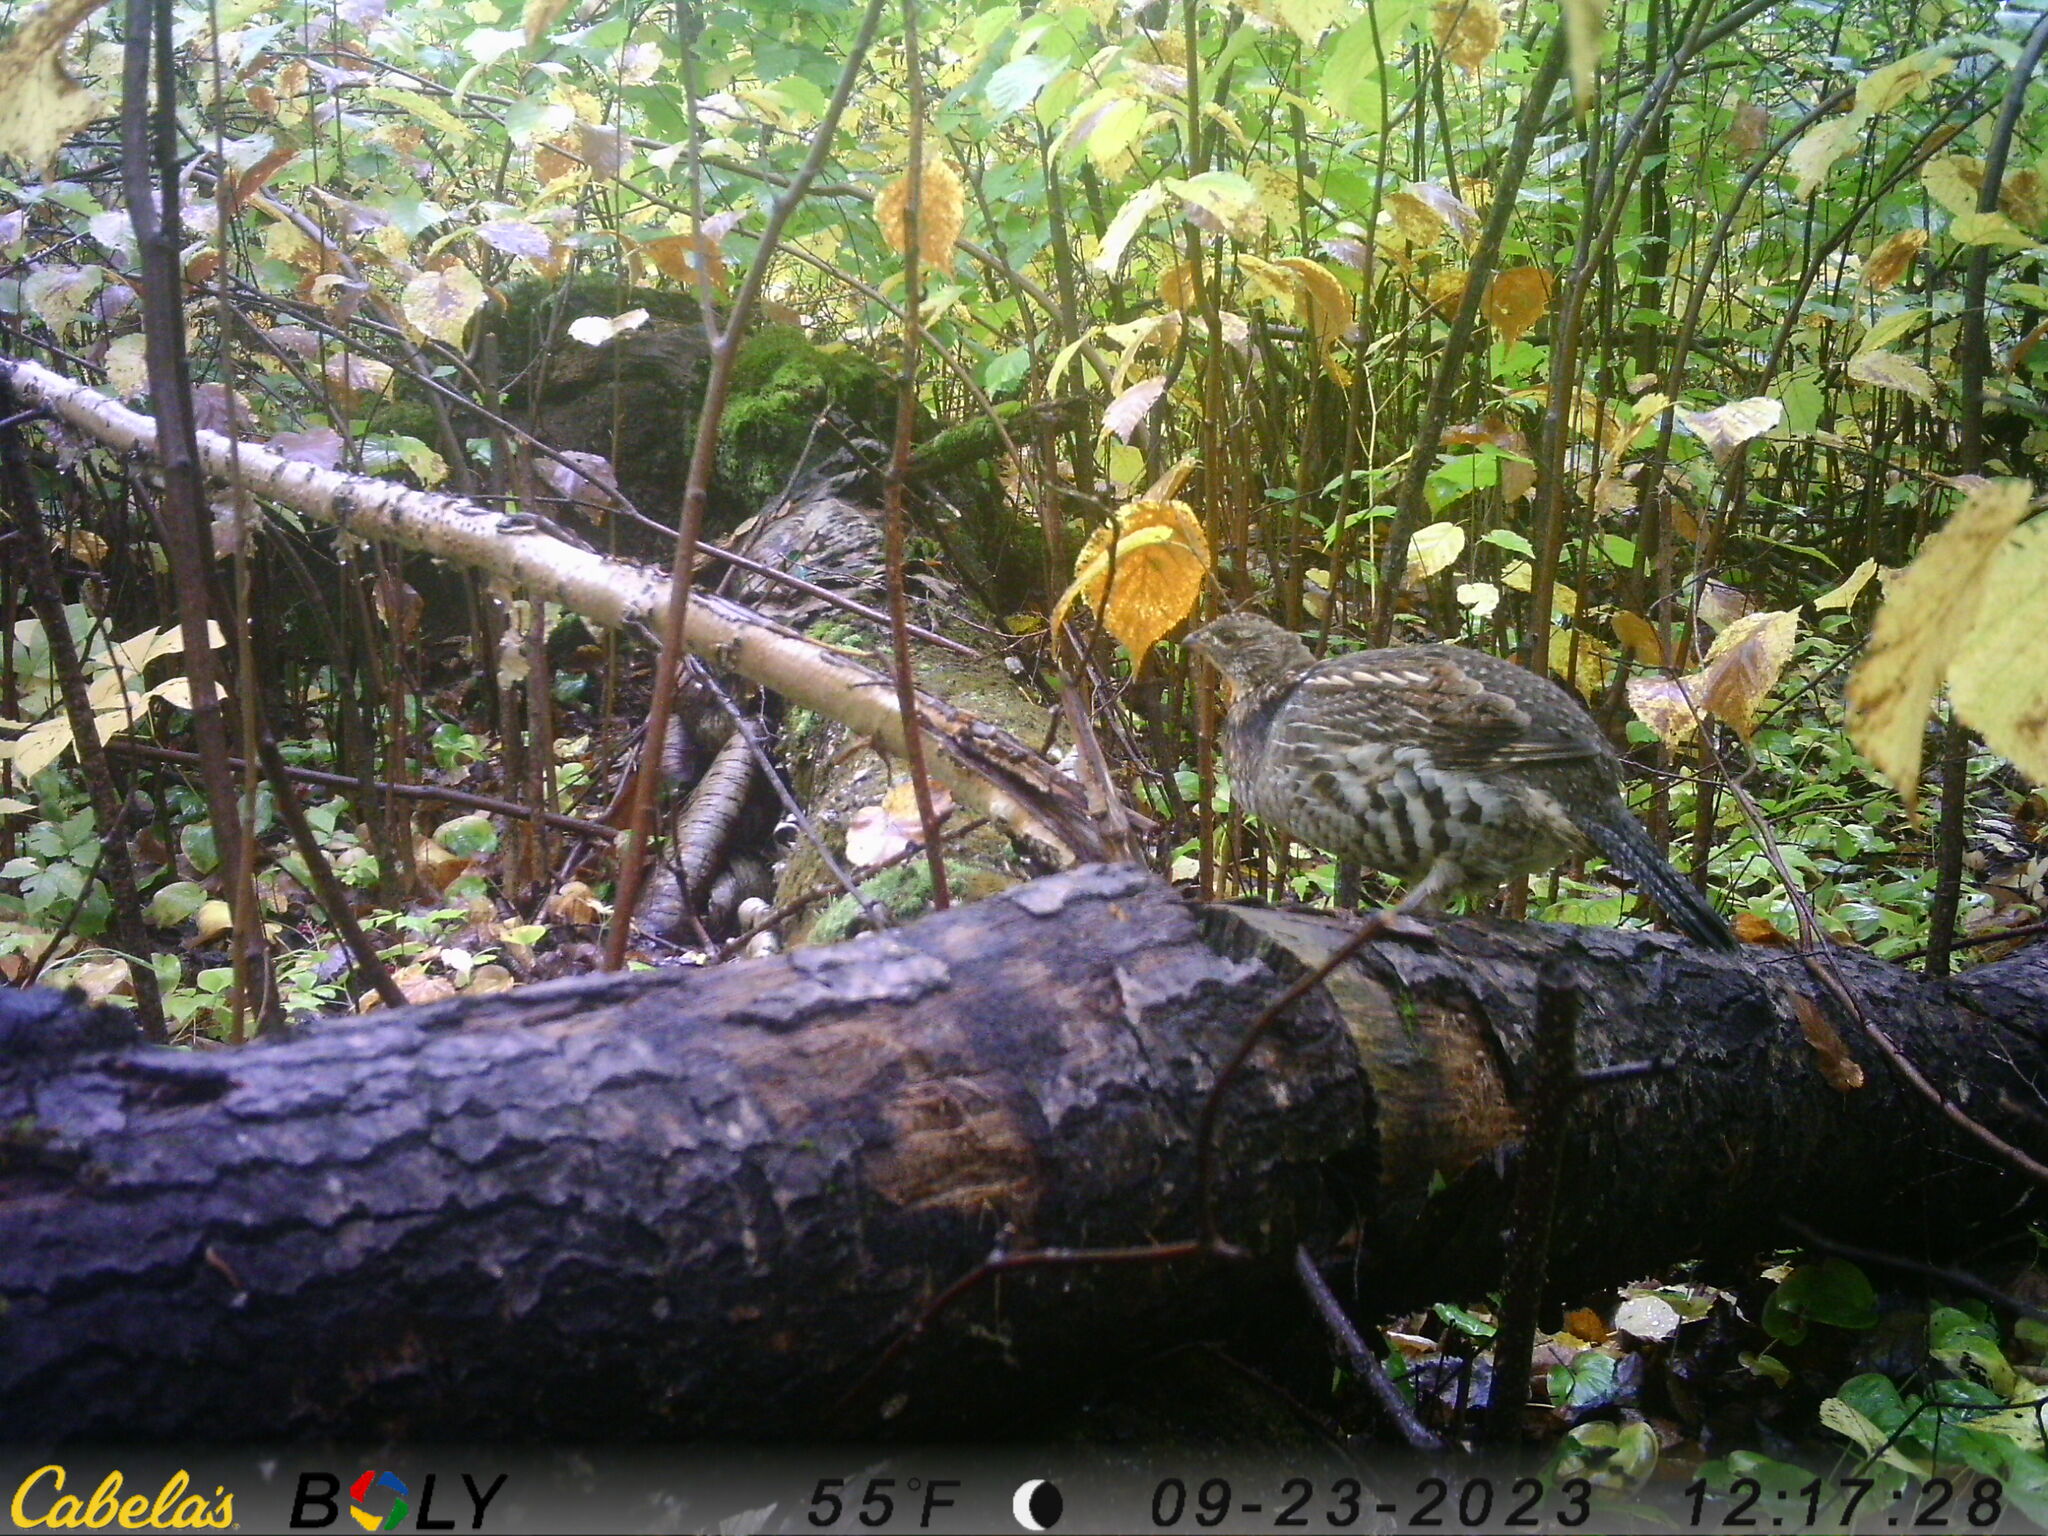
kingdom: Animalia
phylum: Chordata
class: Aves
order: Galliformes
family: Phasianidae
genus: Bonasa
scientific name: Bonasa umbellus
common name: Ruffed grouse
